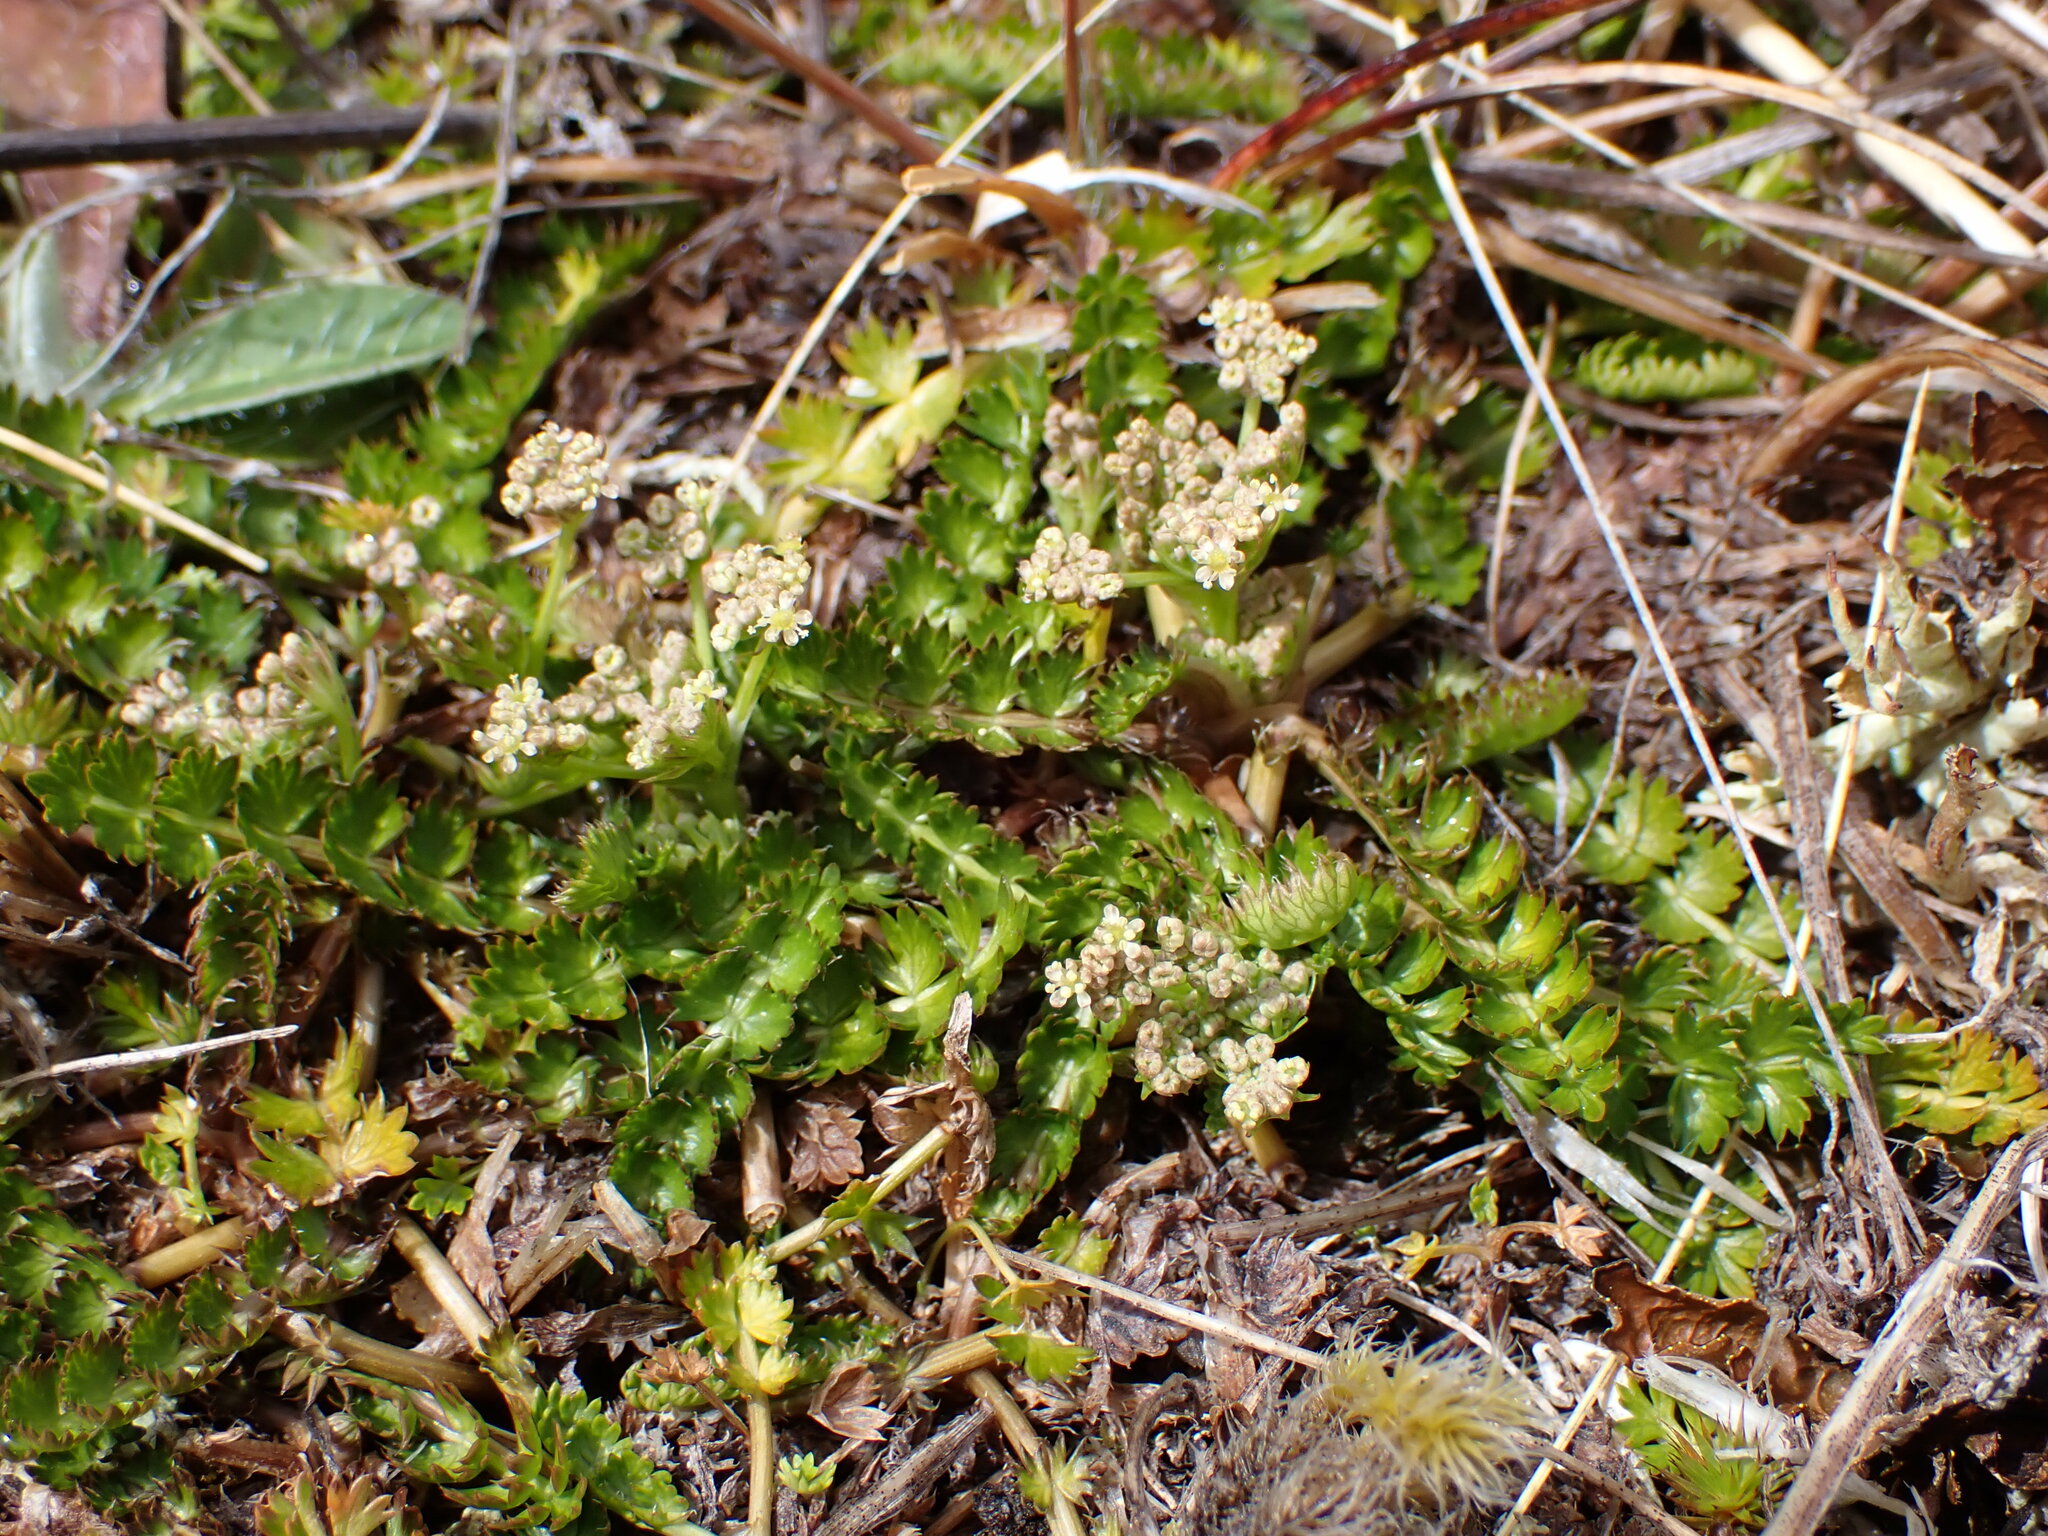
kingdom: Plantae
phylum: Tracheophyta
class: Magnoliopsida
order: Apiales
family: Apiaceae
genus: Anisotome
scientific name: Anisotome aromatica
